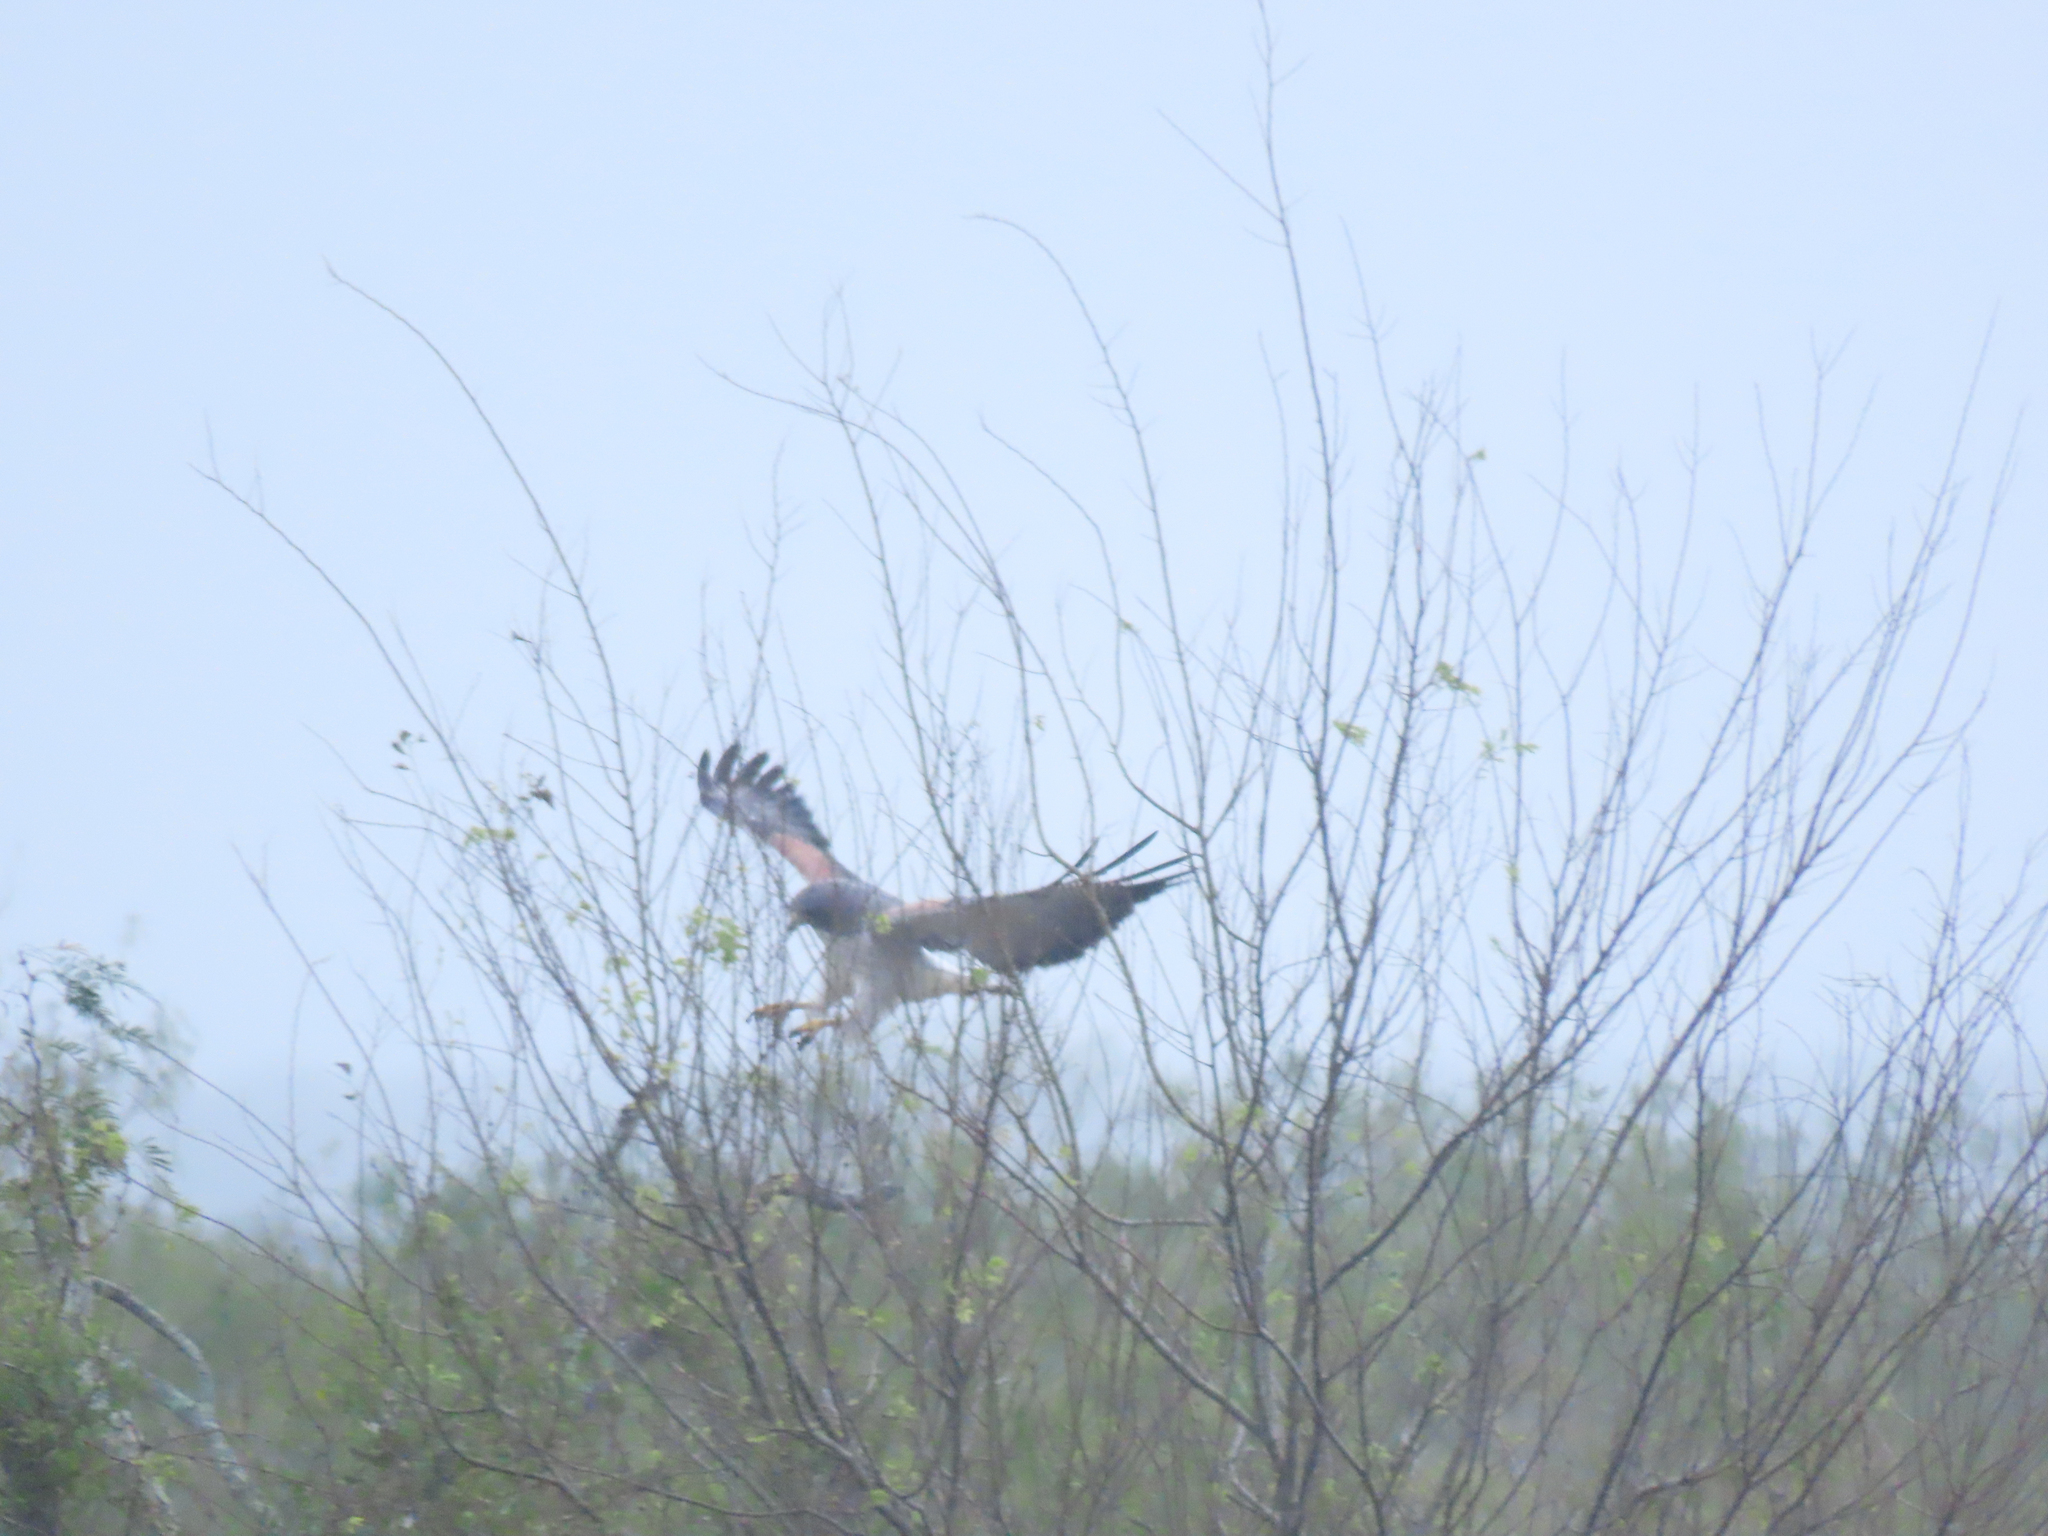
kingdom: Animalia
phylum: Chordata
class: Aves
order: Accipitriformes
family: Accipitridae
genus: Buteo
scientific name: Buteo albicaudatus
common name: White-tailed hawk
